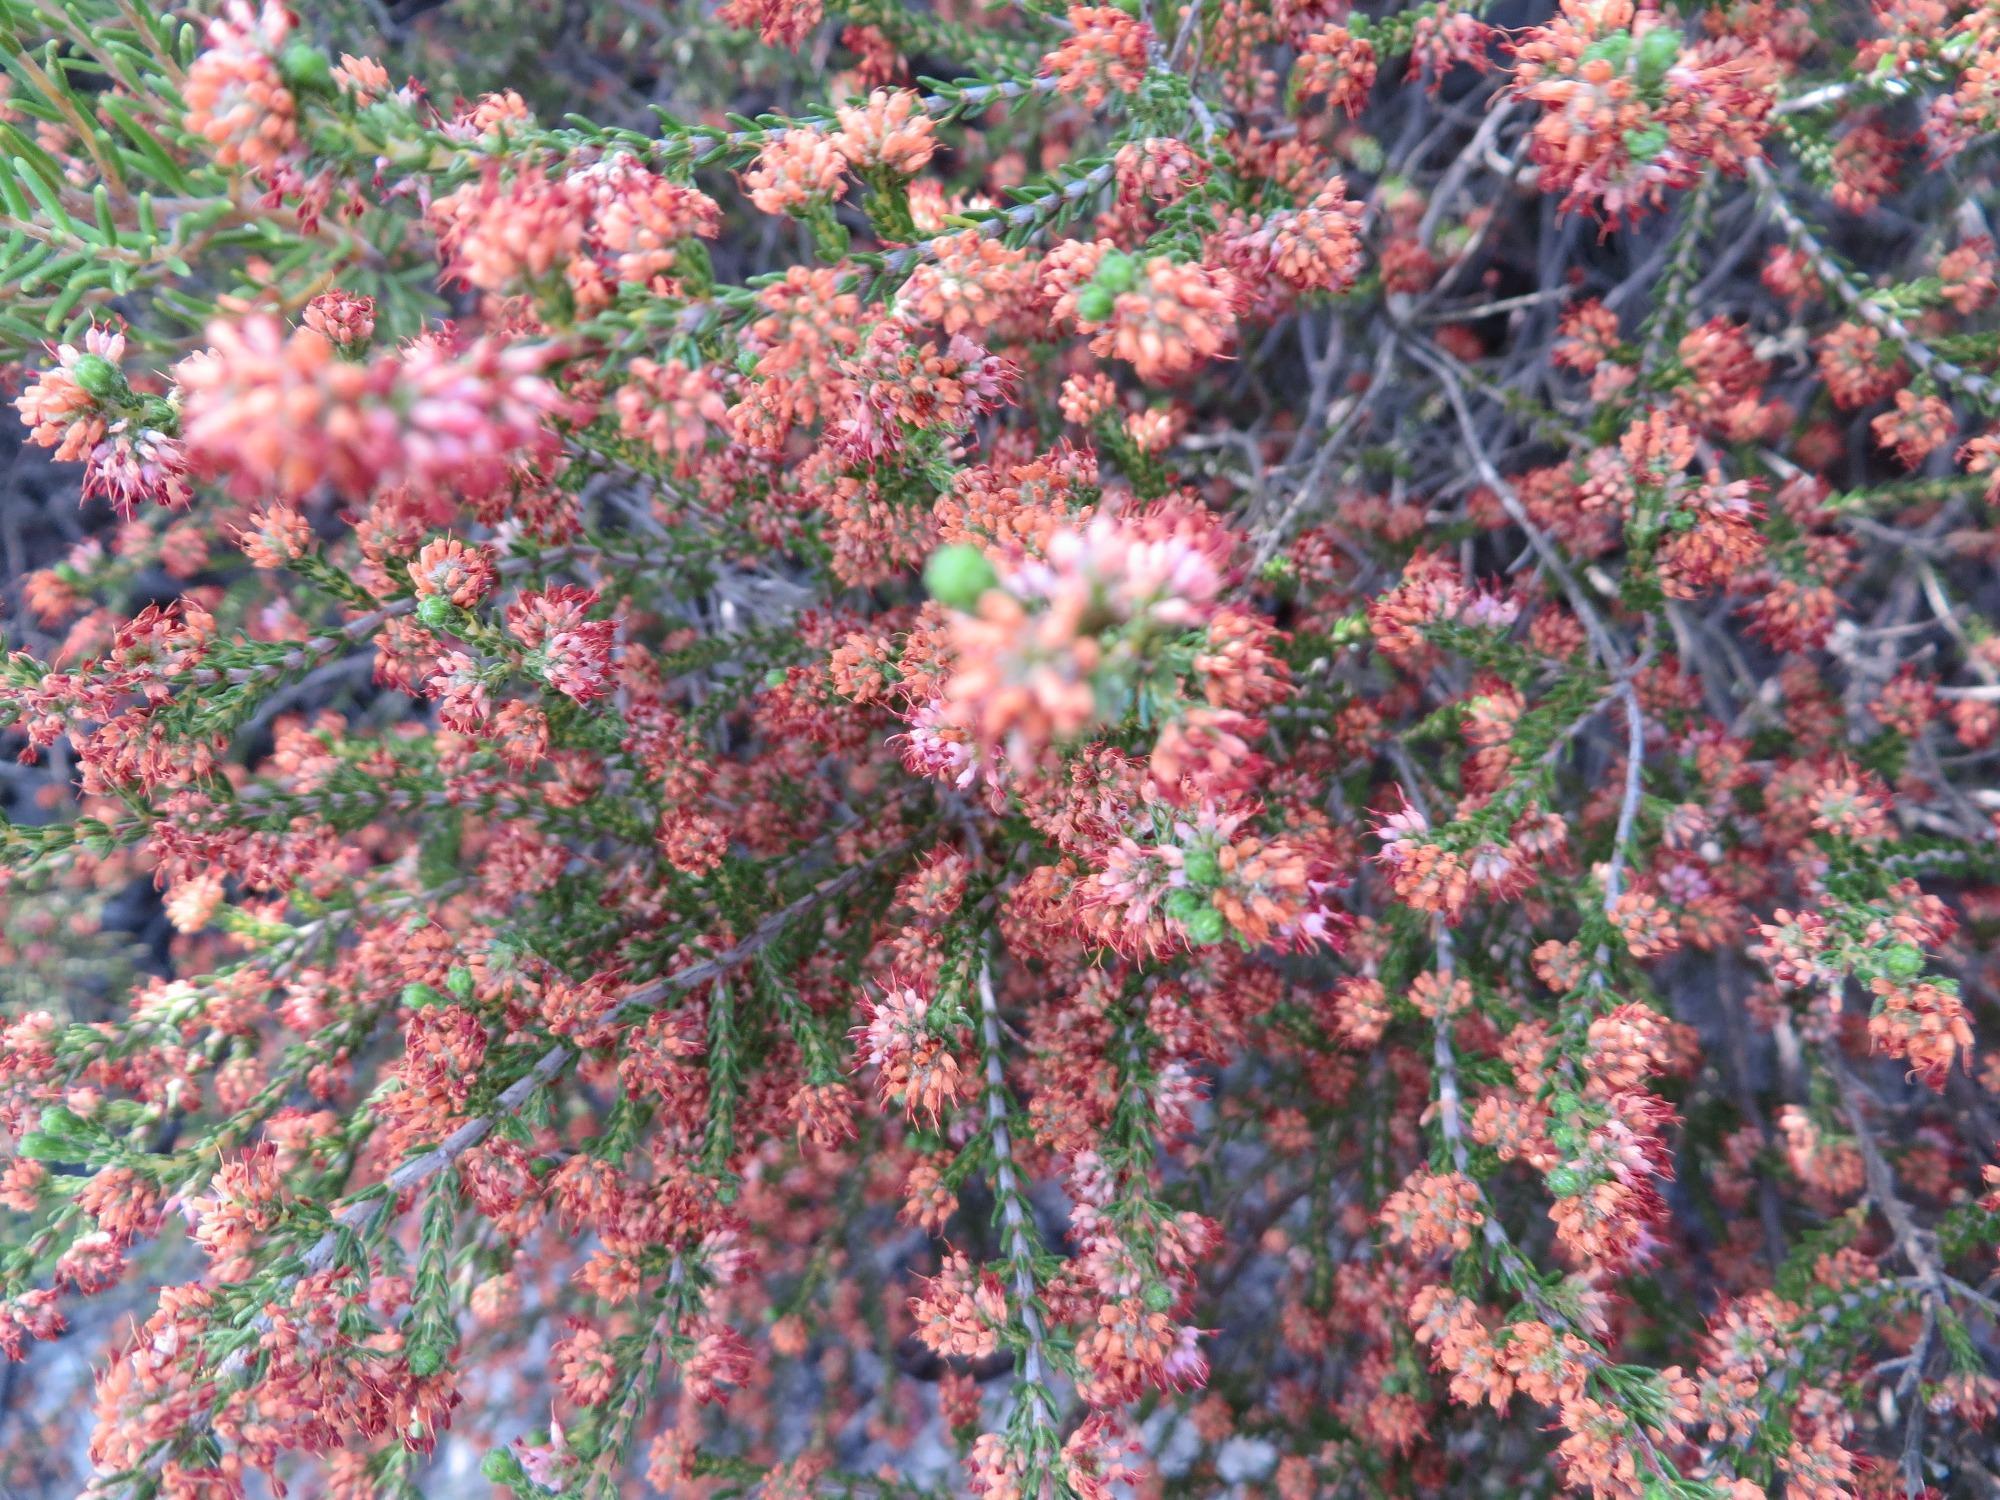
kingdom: Plantae
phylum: Tracheophyta
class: Magnoliopsida
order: Ericales
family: Ericaceae
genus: Erica
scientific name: Erica glabella
